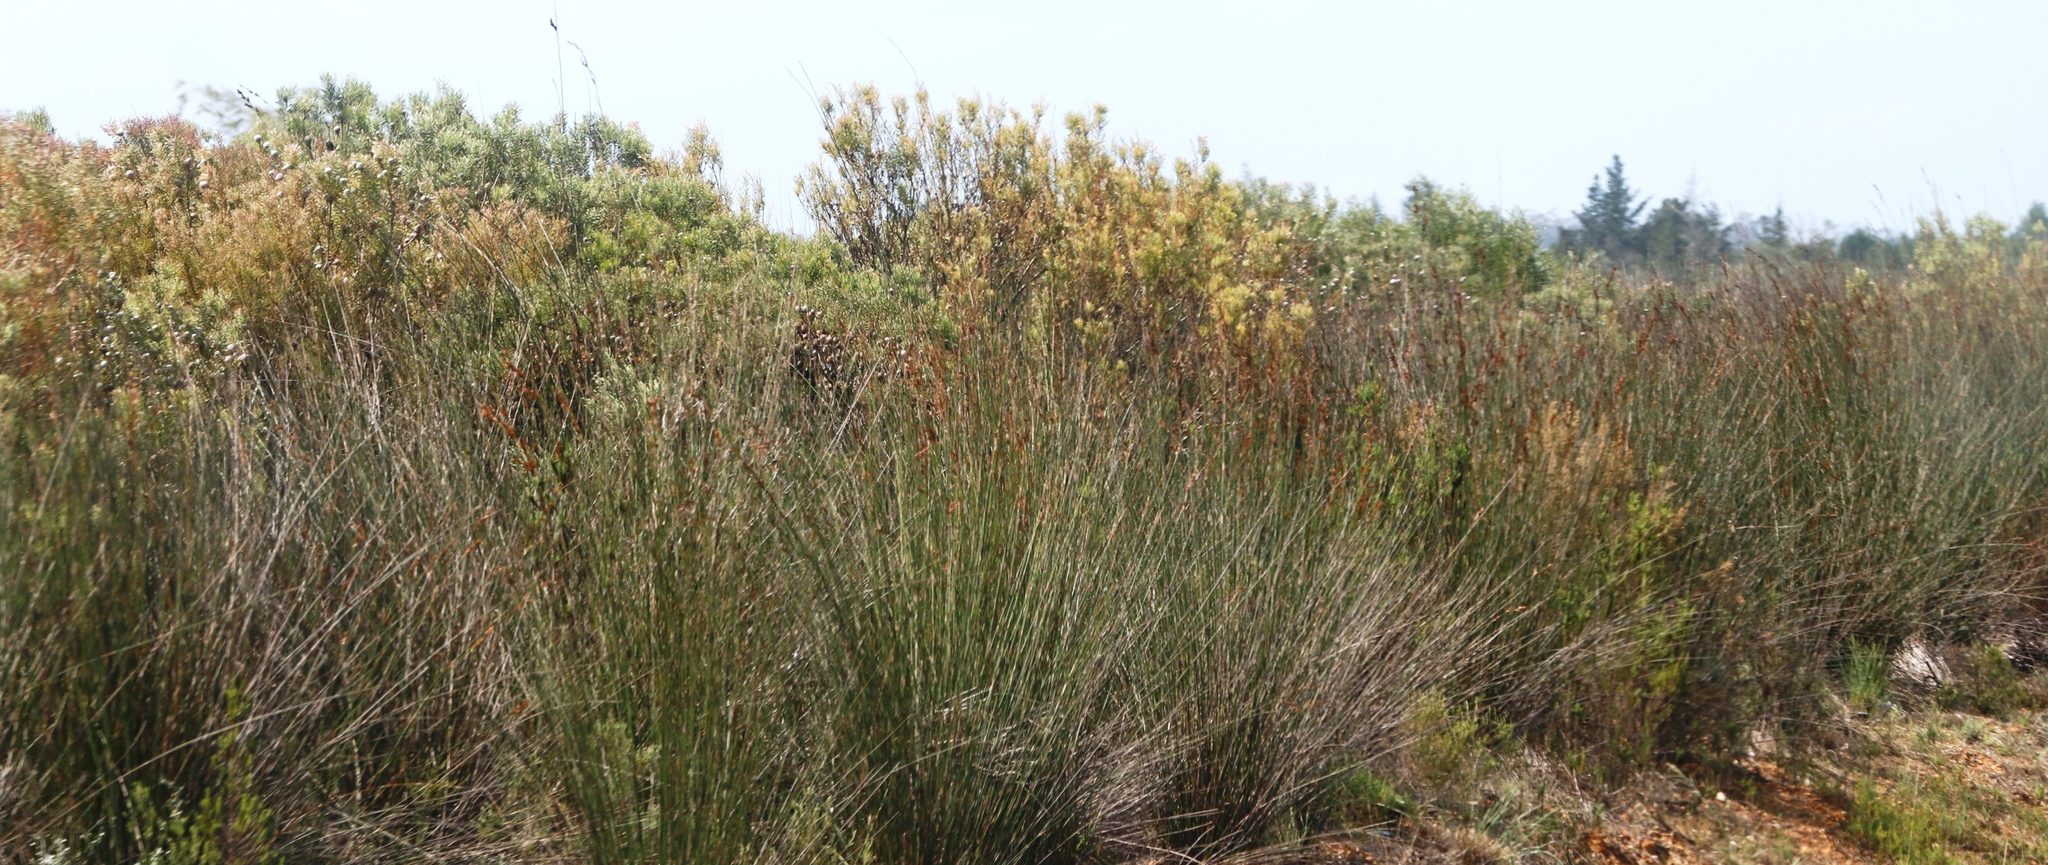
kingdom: Plantae
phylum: Tracheophyta
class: Magnoliopsida
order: Proteales
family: Proteaceae
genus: Leucadendron
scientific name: Leucadendron galpinii
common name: Hairless conebush
